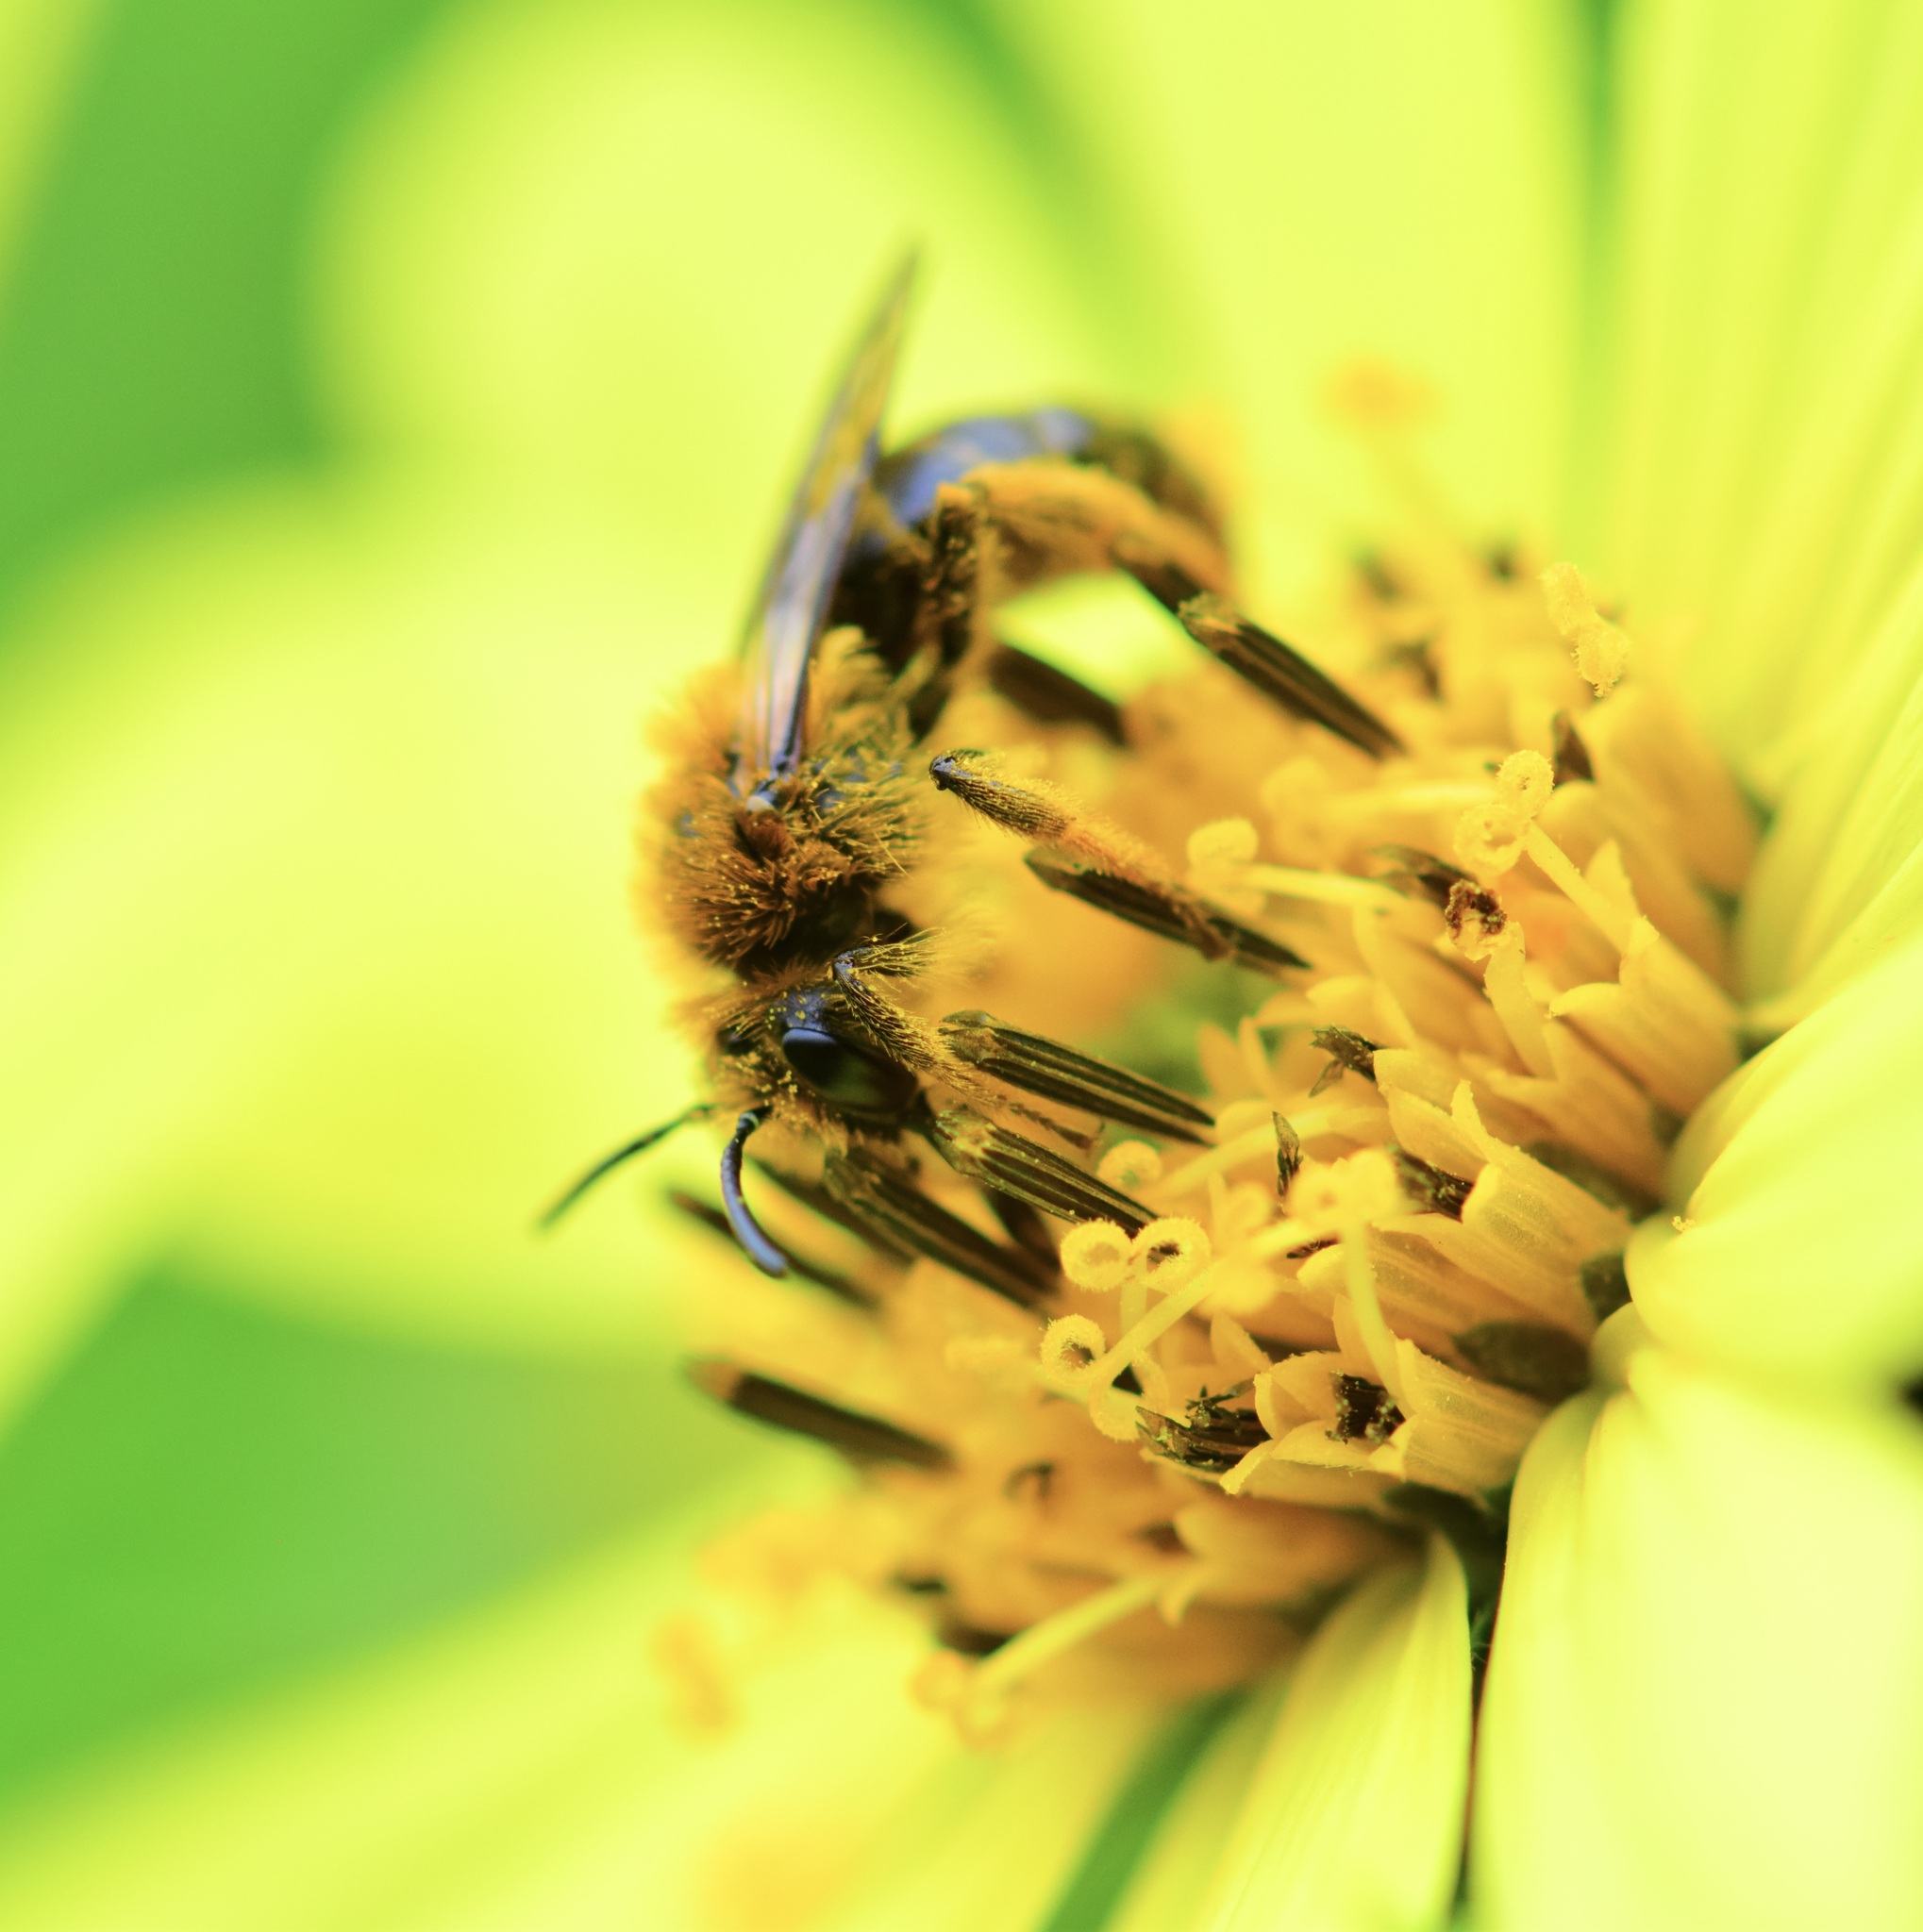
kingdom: Animalia
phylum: Arthropoda
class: Insecta
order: Hymenoptera
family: Andrenidae
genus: Andrena
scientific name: Andrena helianthi
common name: Sunflower mining bee
